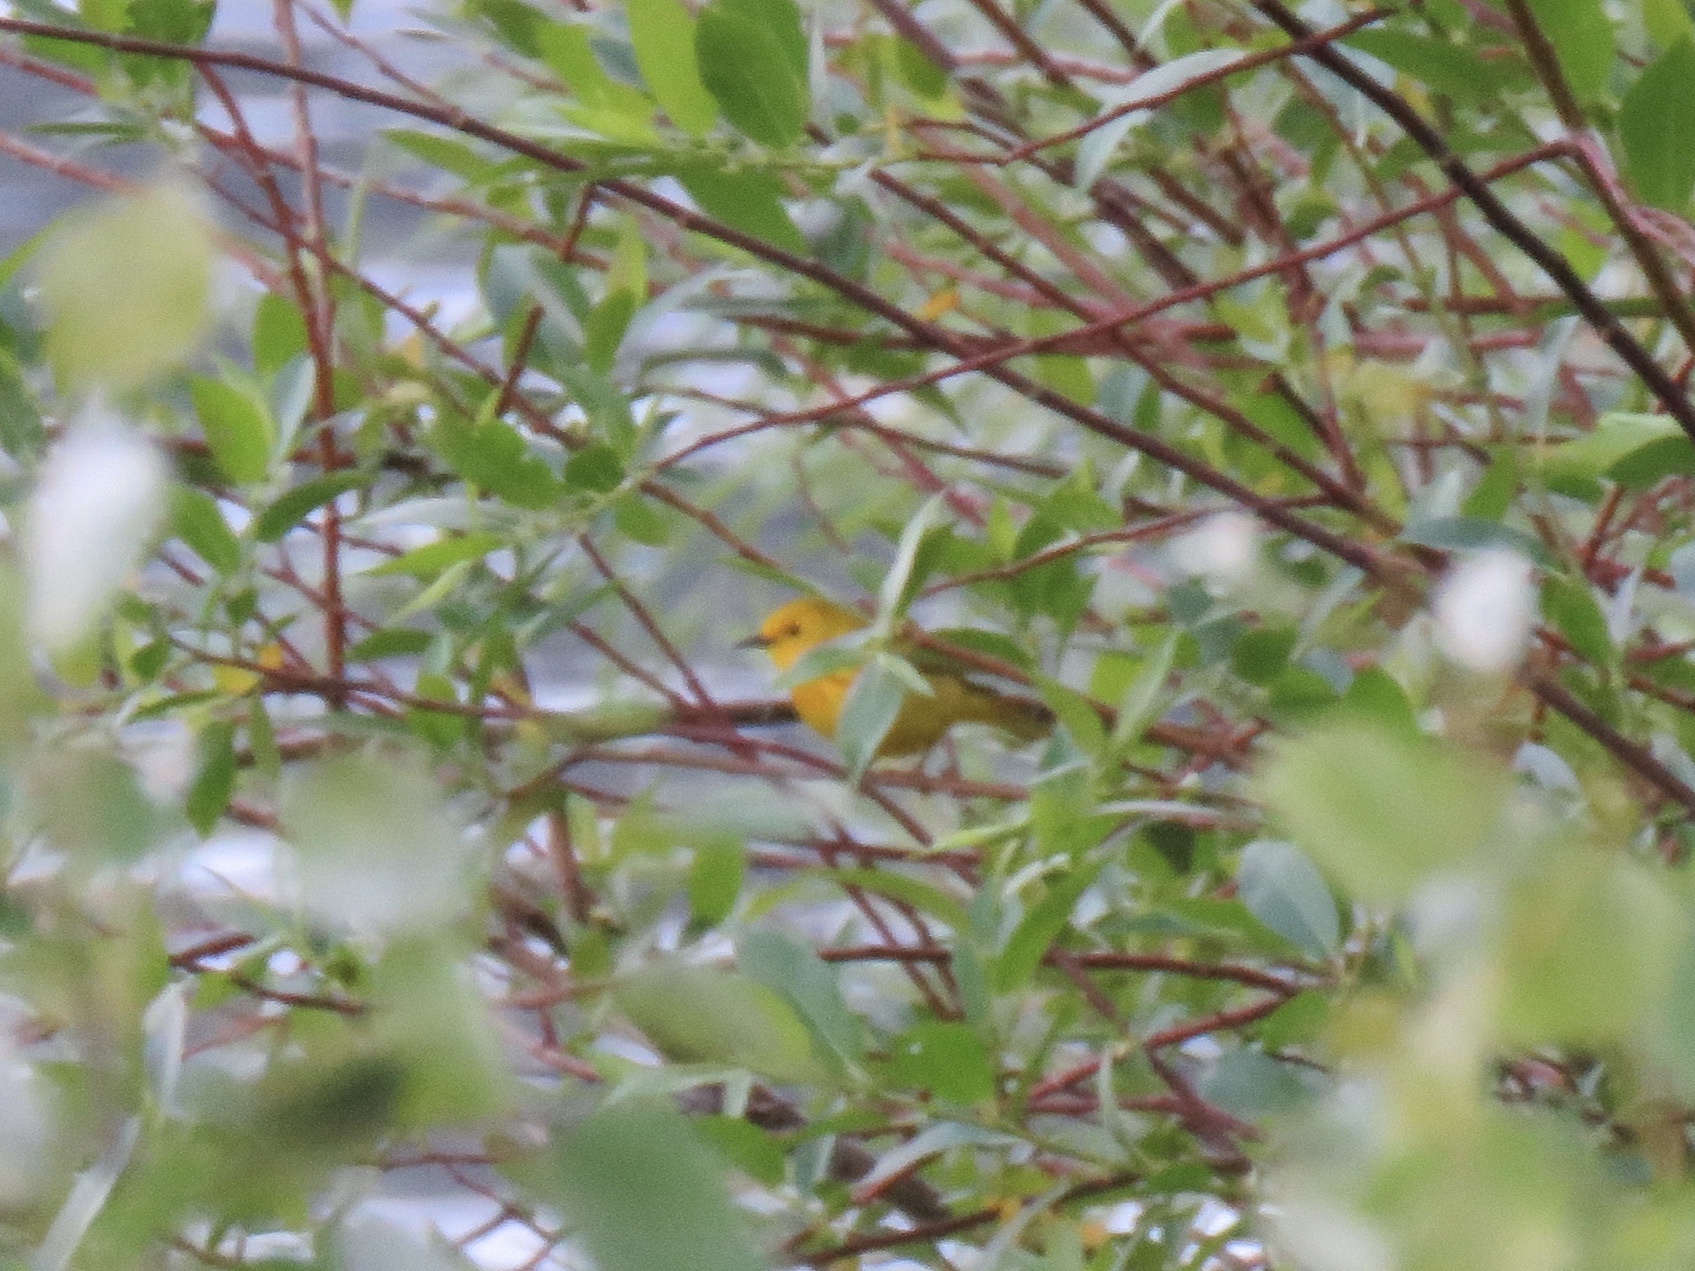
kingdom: Animalia
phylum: Chordata
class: Aves
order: Passeriformes
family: Parulidae
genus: Setophaga
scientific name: Setophaga petechia
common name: Yellow warbler
